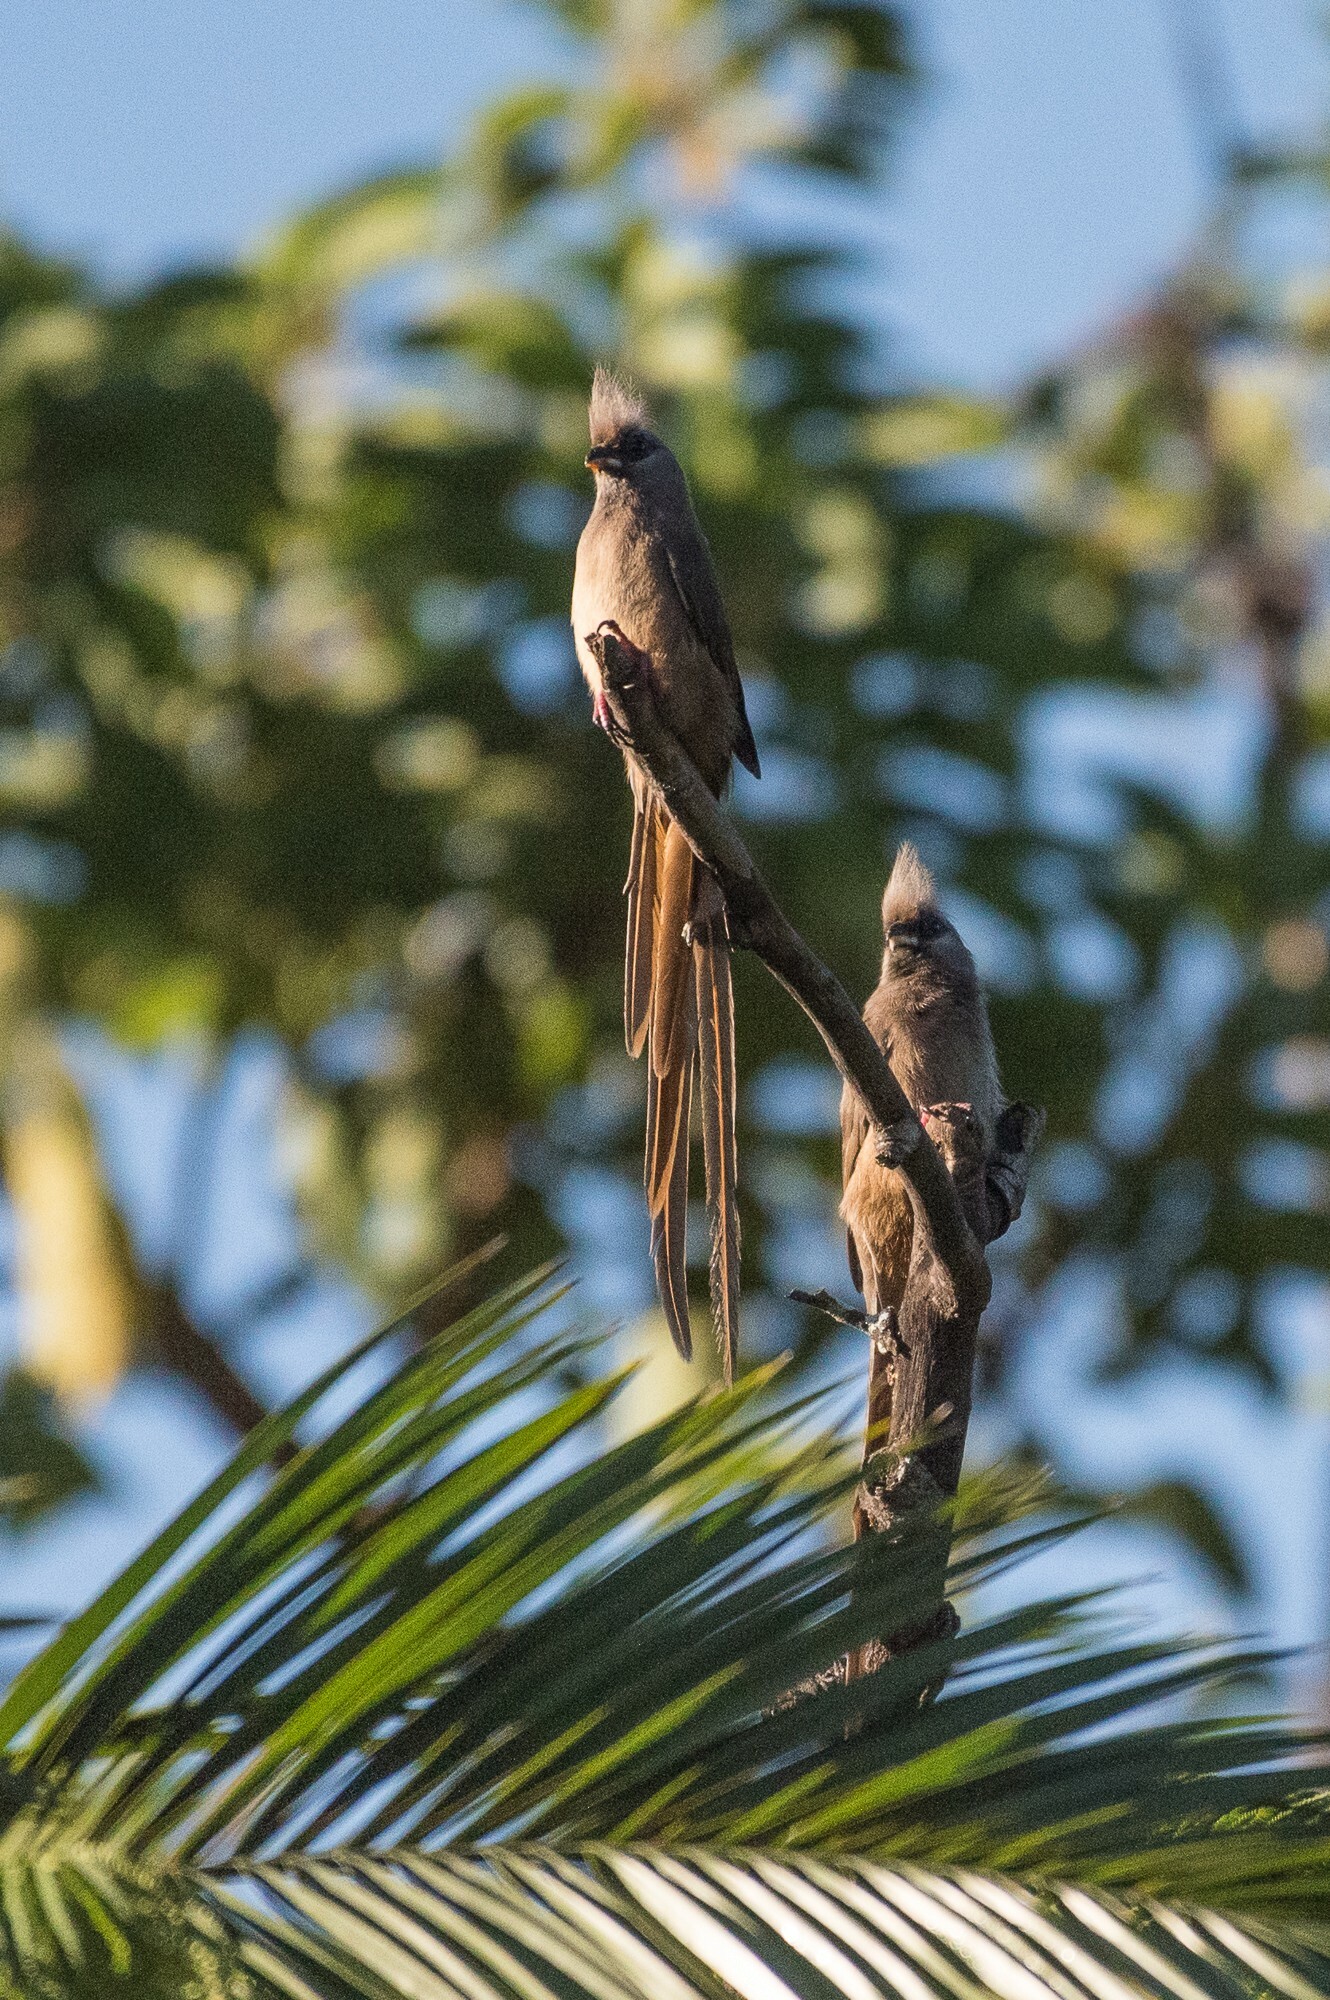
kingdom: Animalia
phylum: Chordata
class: Aves
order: Coliiformes
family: Coliidae
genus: Colius
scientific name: Colius striatus
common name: Speckled mousebird
